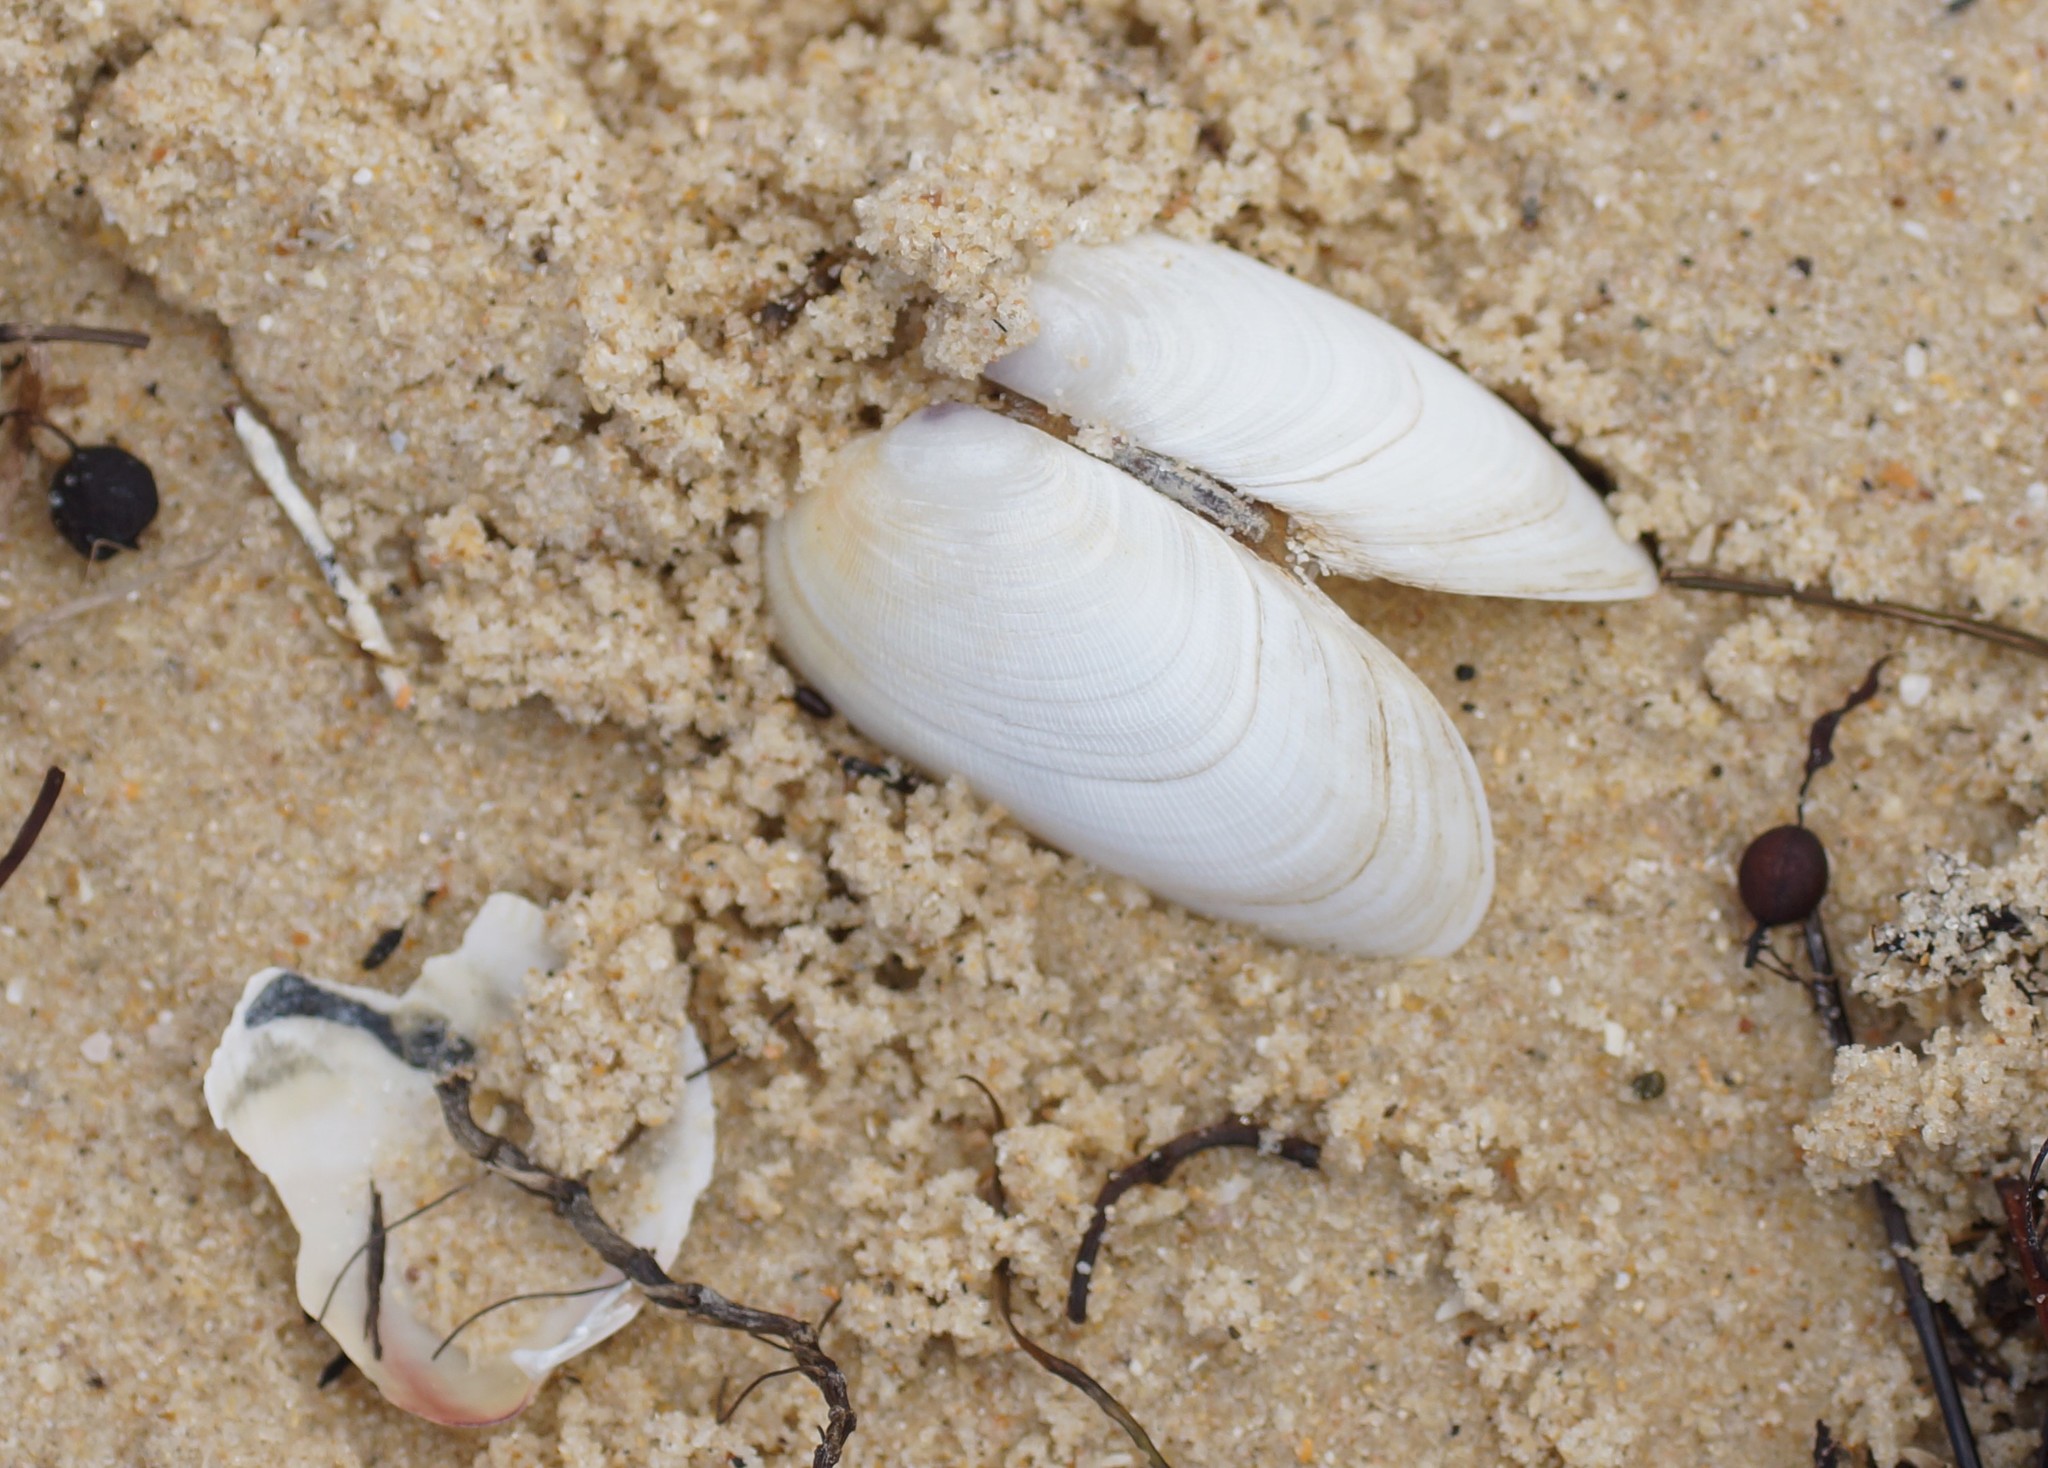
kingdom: Animalia
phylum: Mollusca
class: Bivalvia
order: Venerida
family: Veneridae
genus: Venerupis
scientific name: Venerupis galactites
